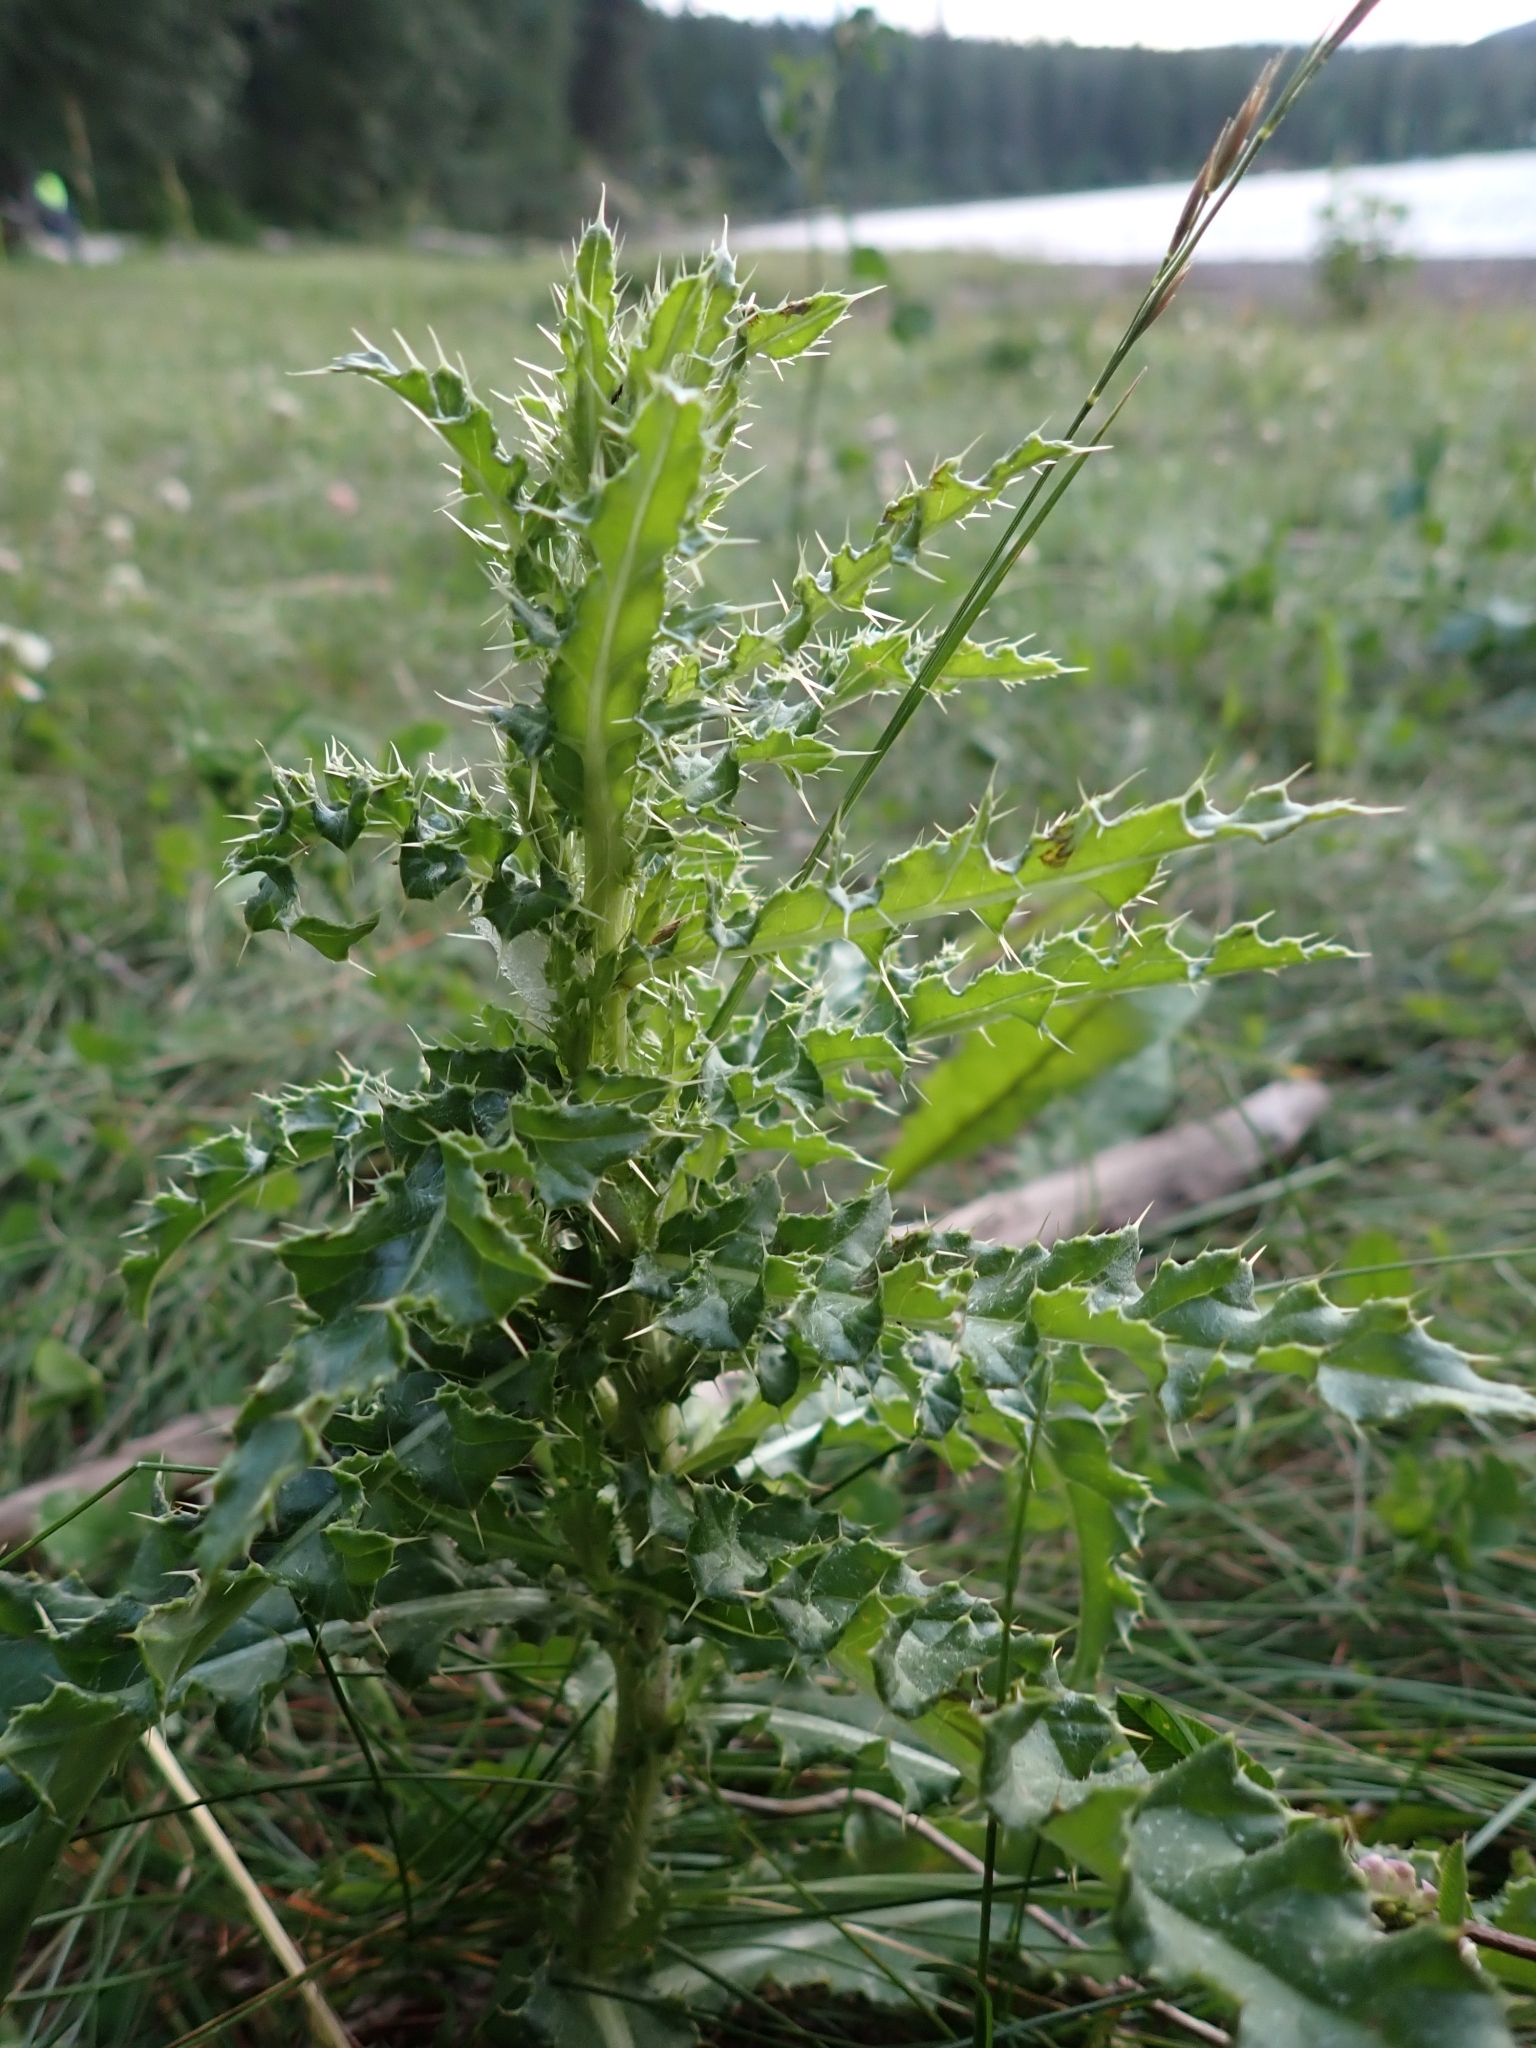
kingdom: Plantae
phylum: Tracheophyta
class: Magnoliopsida
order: Asterales
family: Asteraceae
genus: Cirsium
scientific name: Cirsium arvense
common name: Creeping thistle
